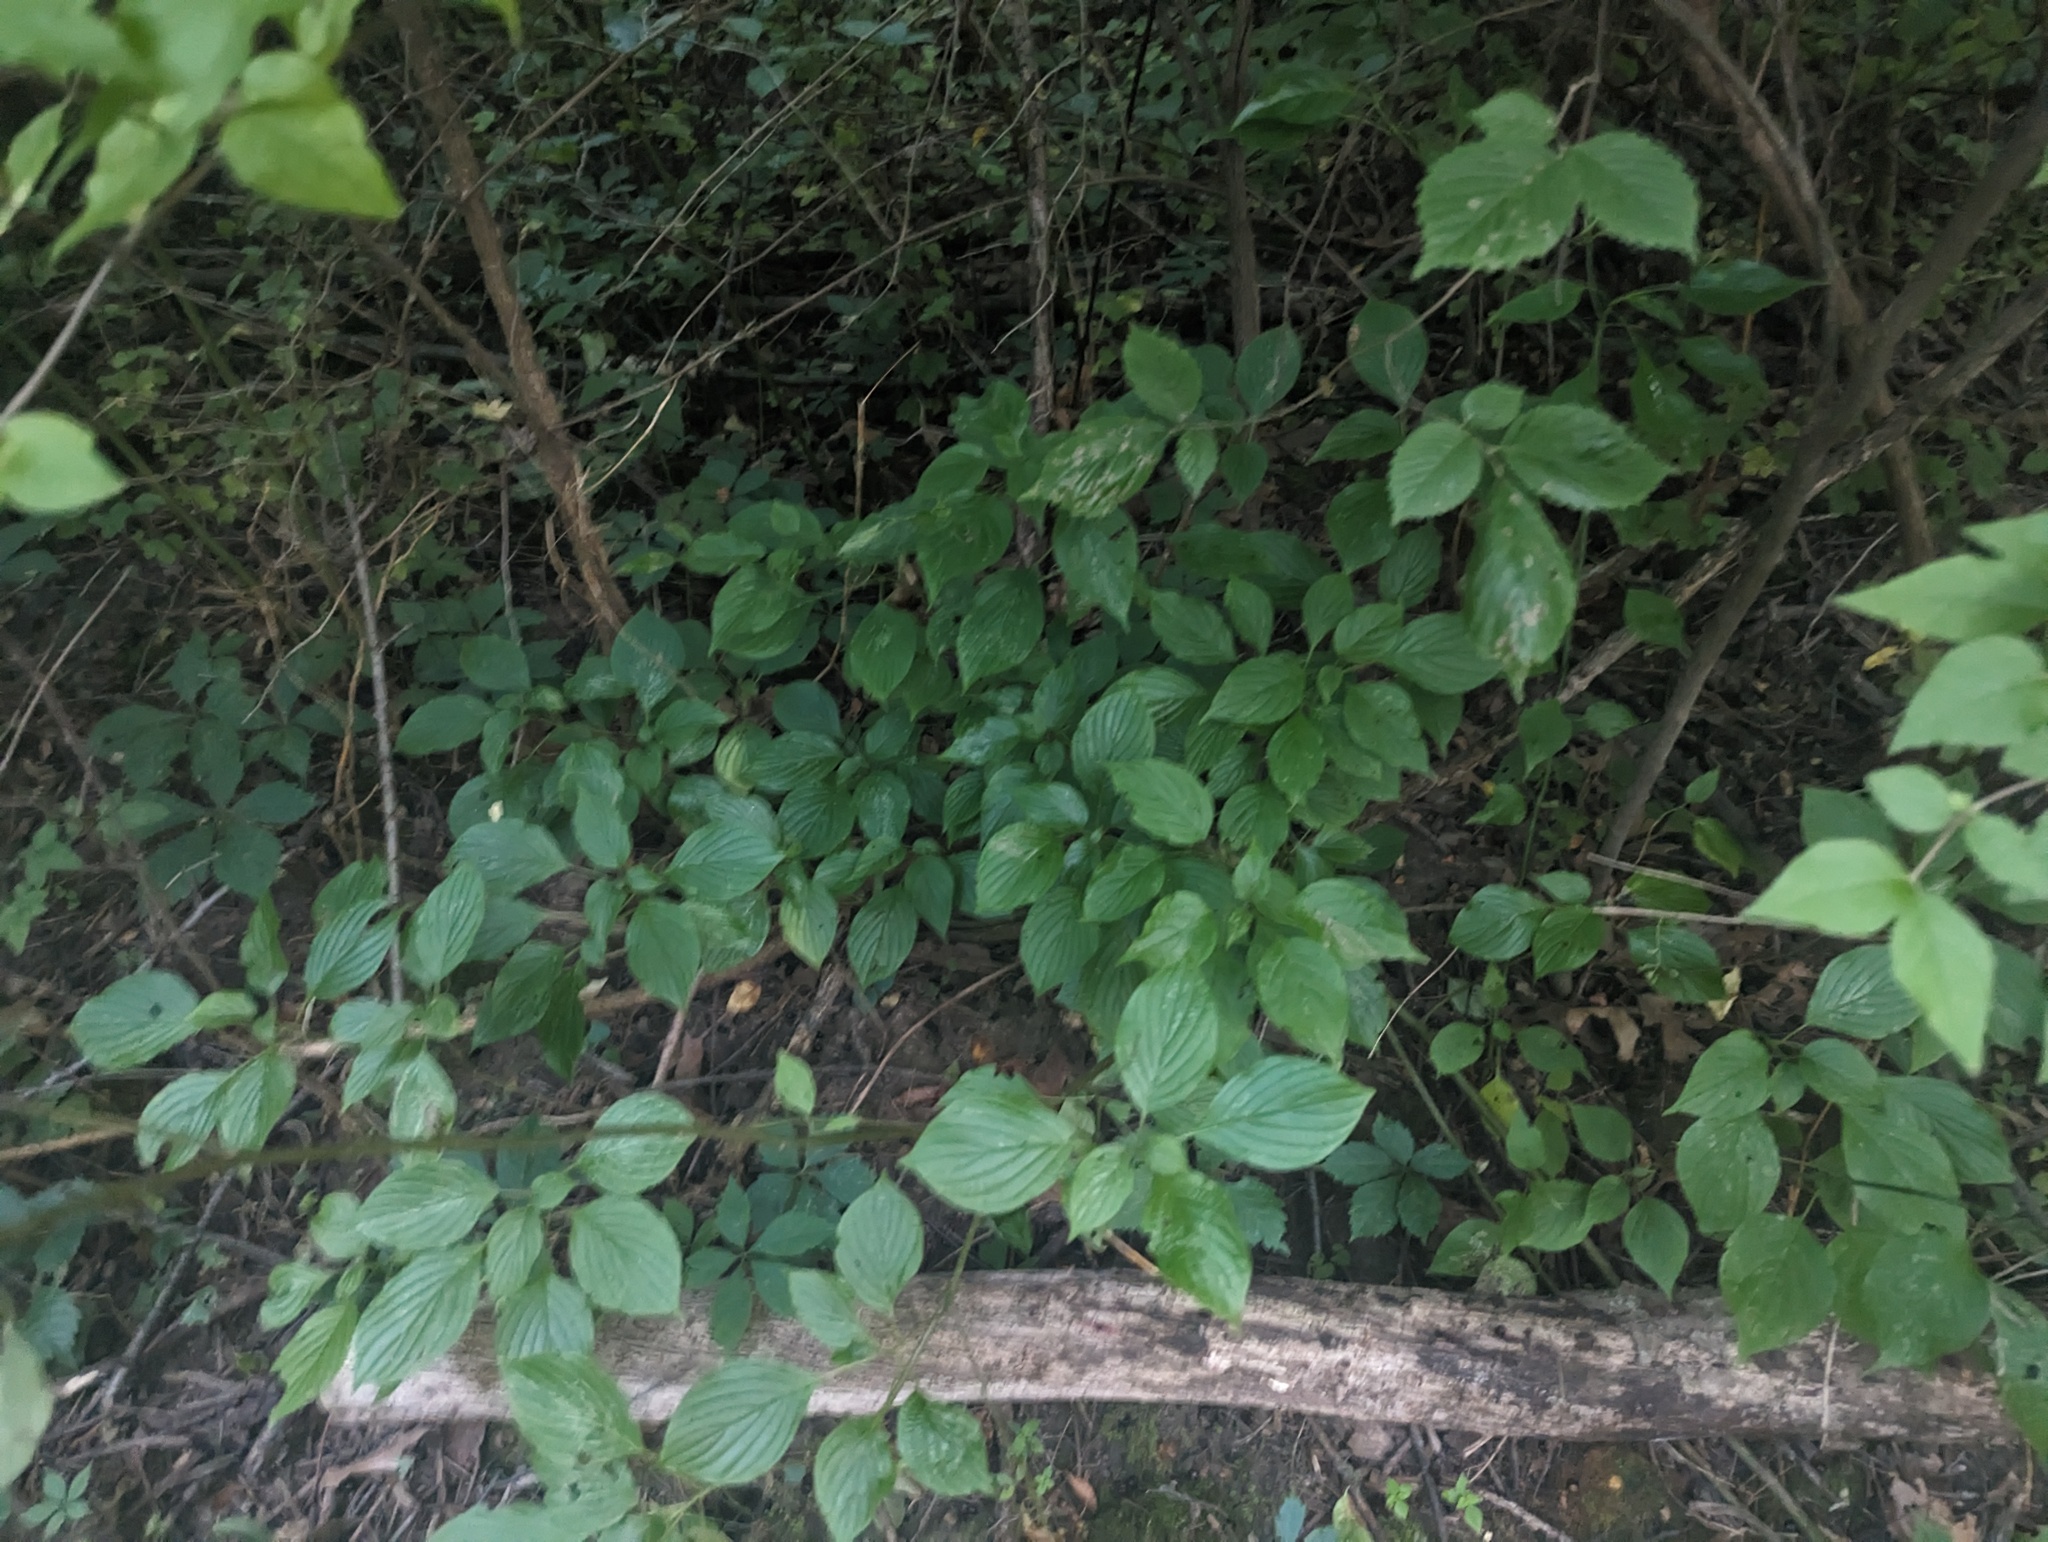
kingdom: Plantae
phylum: Tracheophyta
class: Magnoliopsida
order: Cornales
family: Cornaceae
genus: Cornus
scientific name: Cornus alternifolia
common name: Pagoda dogwood
